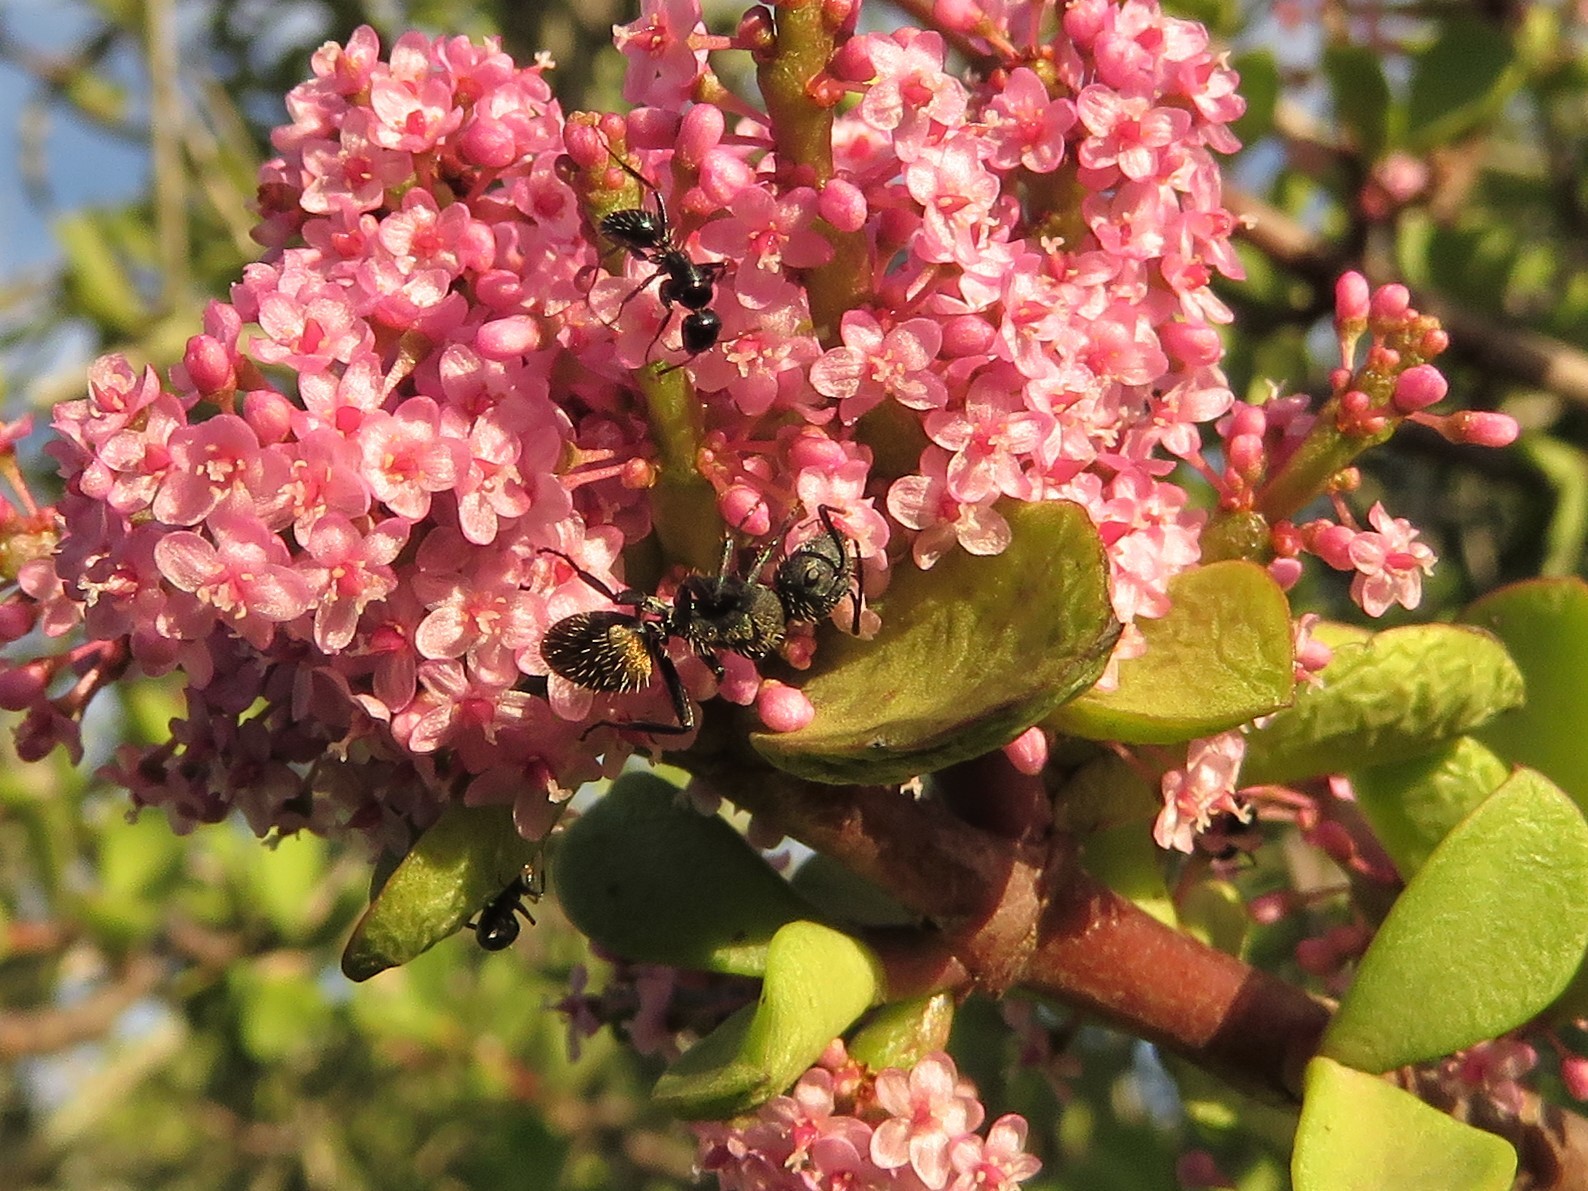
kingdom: Animalia
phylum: Arthropoda
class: Insecta
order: Hymenoptera
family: Formicidae
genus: Camponotus
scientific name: Camponotus postoculatus
